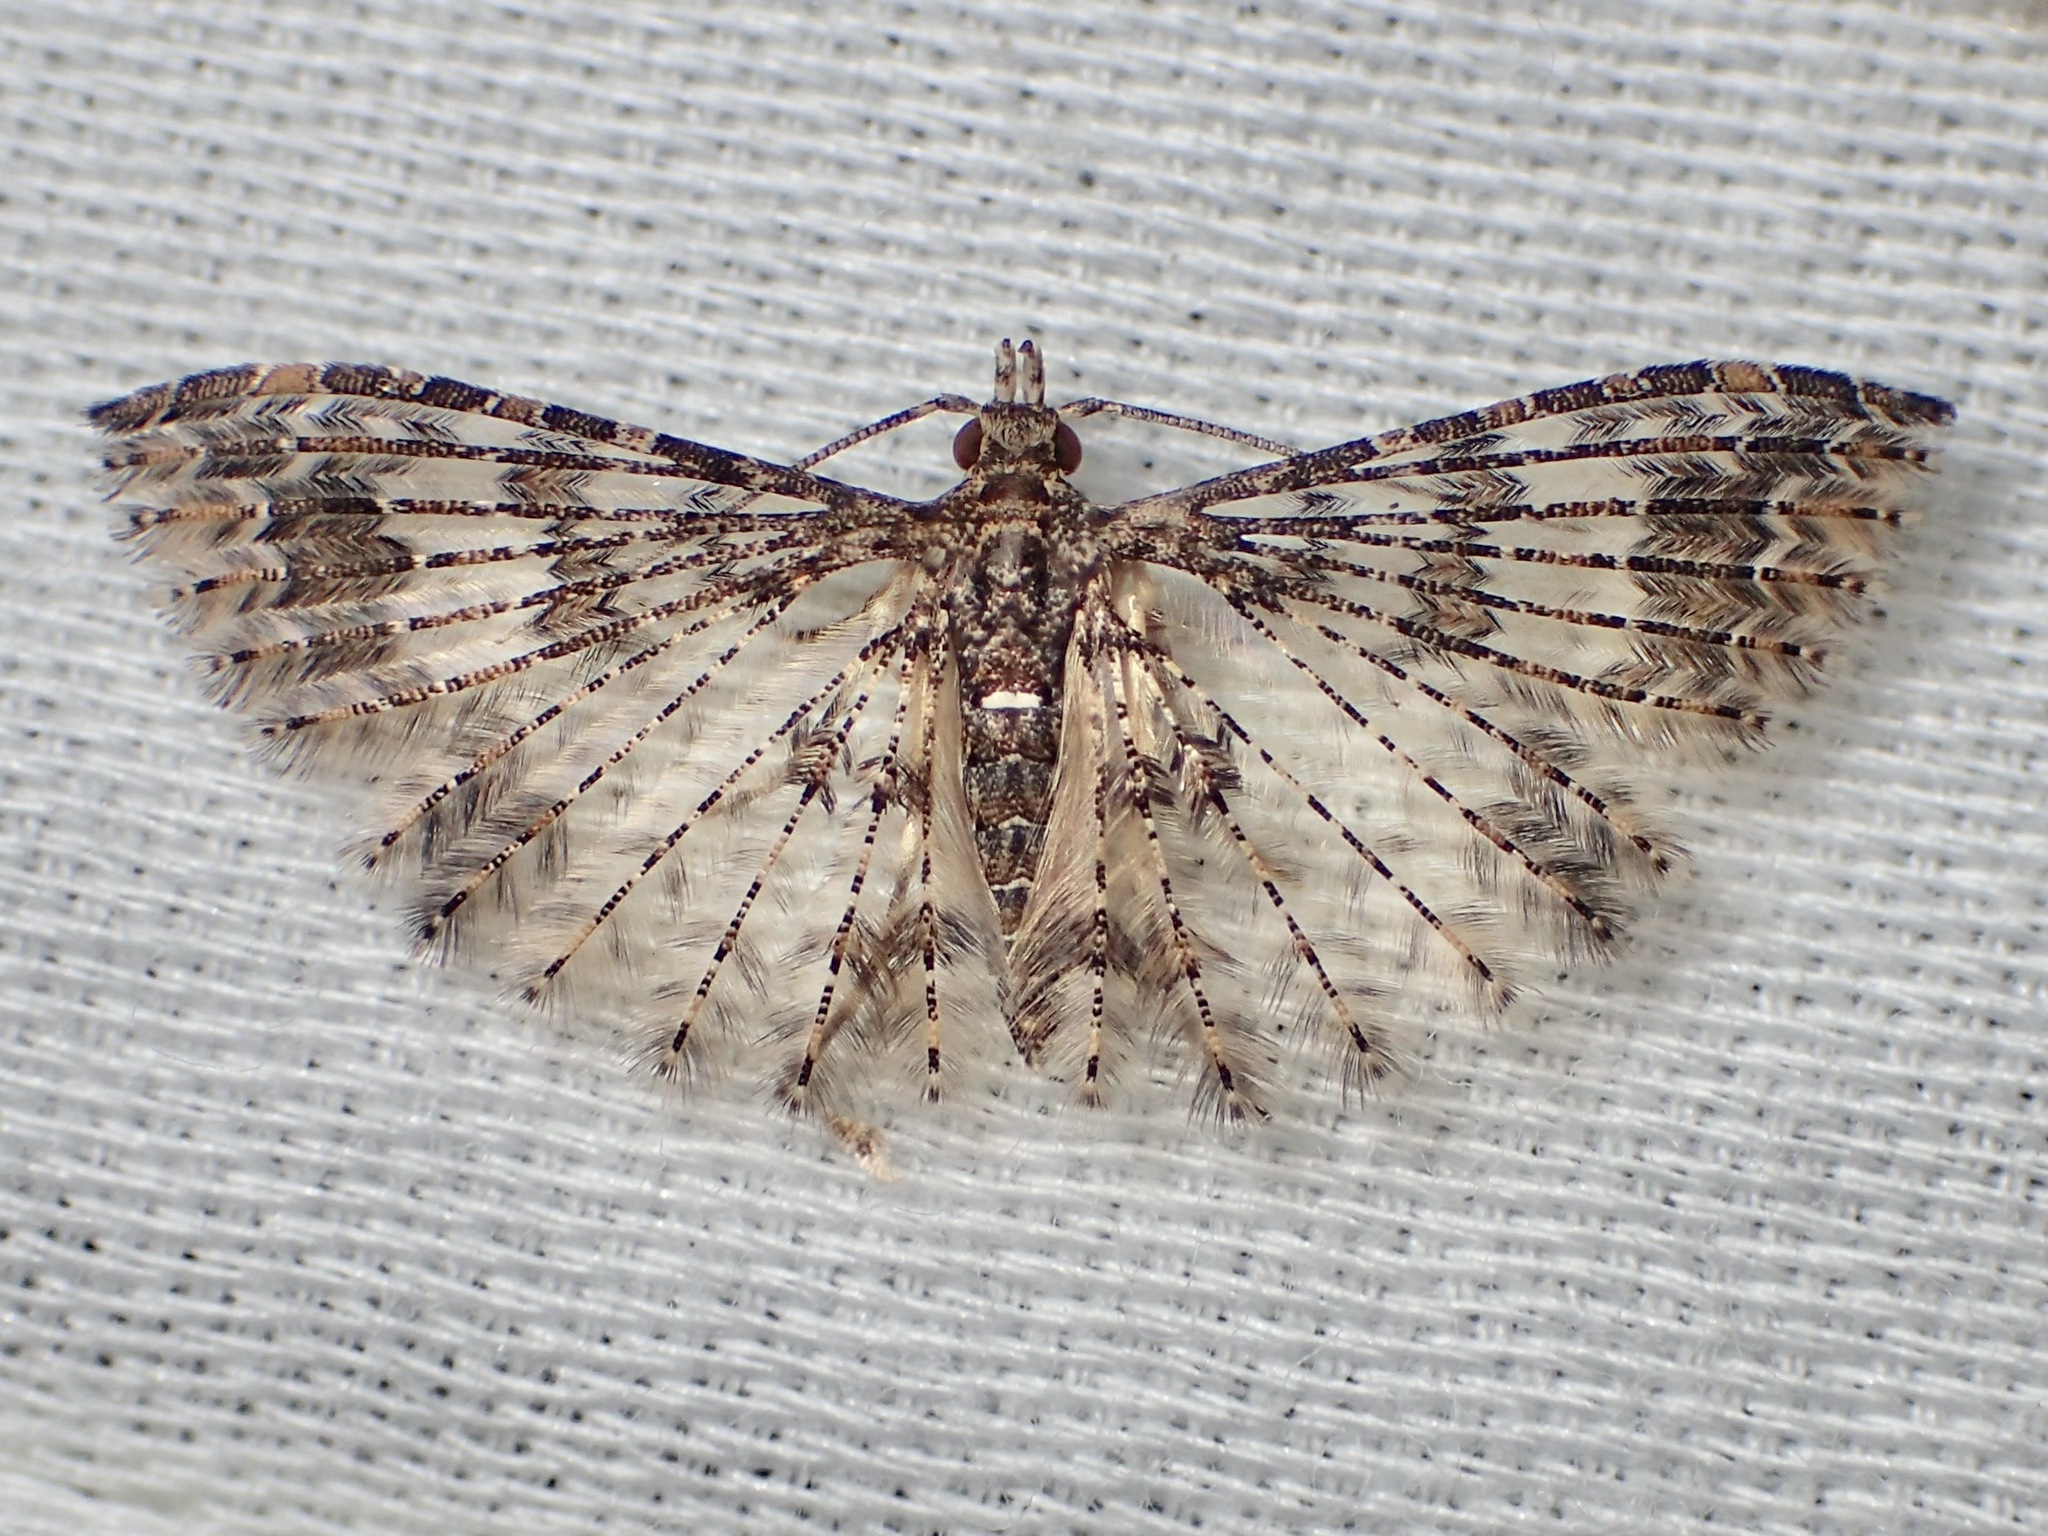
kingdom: Animalia
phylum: Arthropoda
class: Insecta
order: Lepidoptera
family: Alucitidae
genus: Alucita
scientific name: Alucita phricodes
